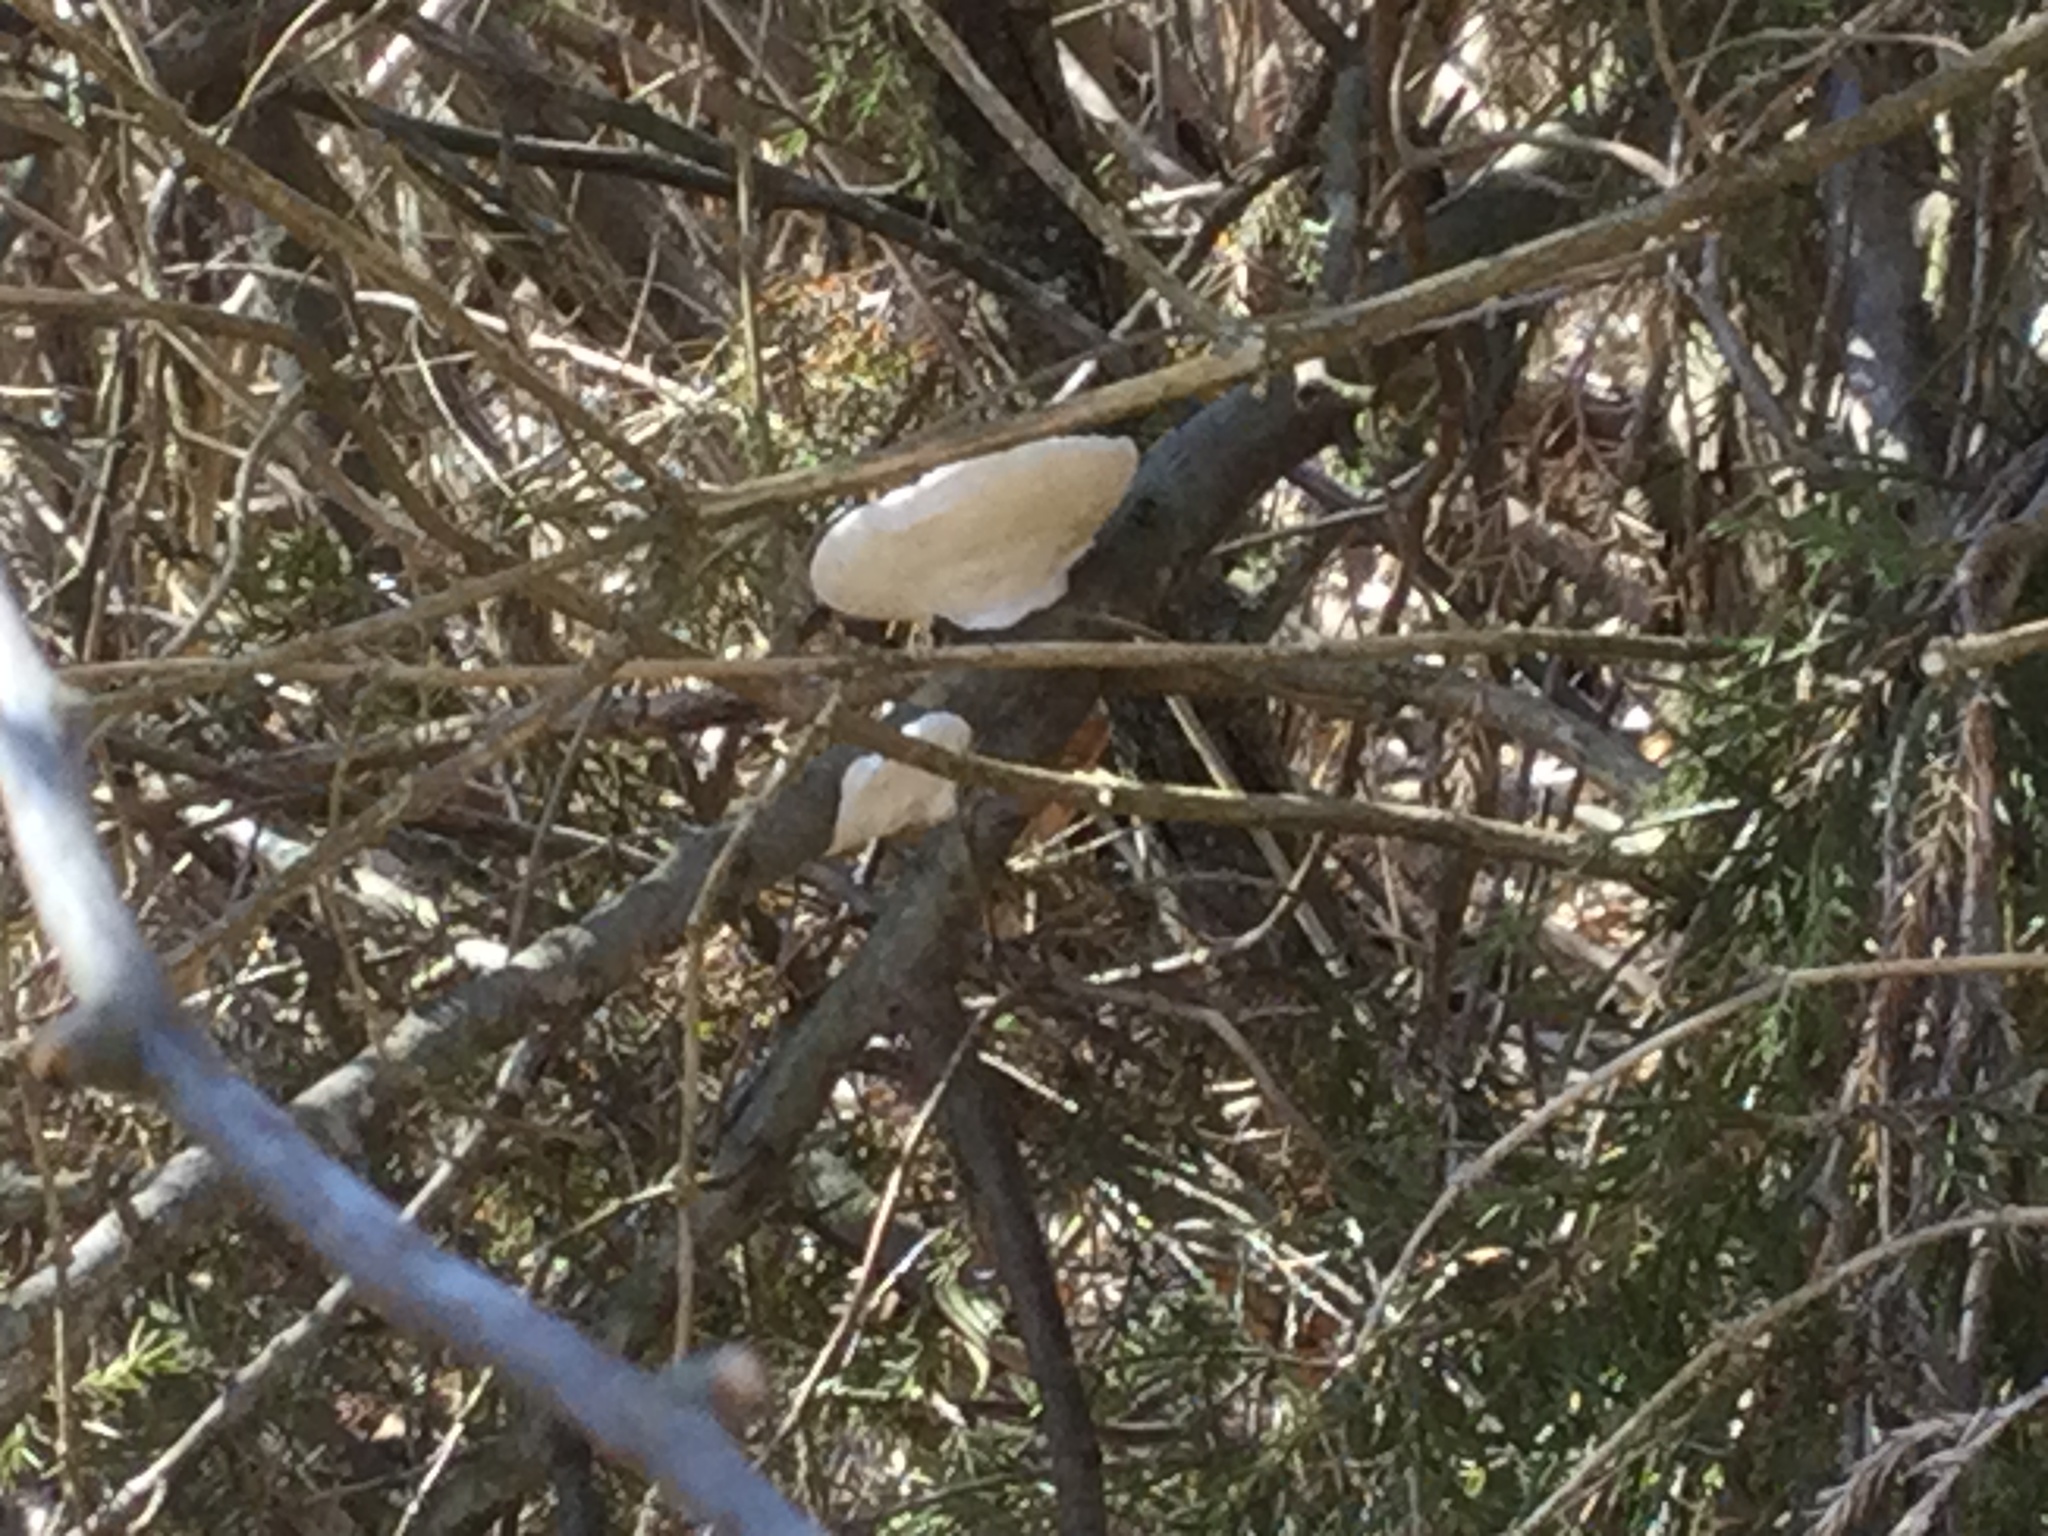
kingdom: Fungi
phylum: Basidiomycota
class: Agaricomycetes
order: Polyporales
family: Fomitopsidaceae
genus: Fomitopsis
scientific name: Fomitopsis betulina
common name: Birch polypore
